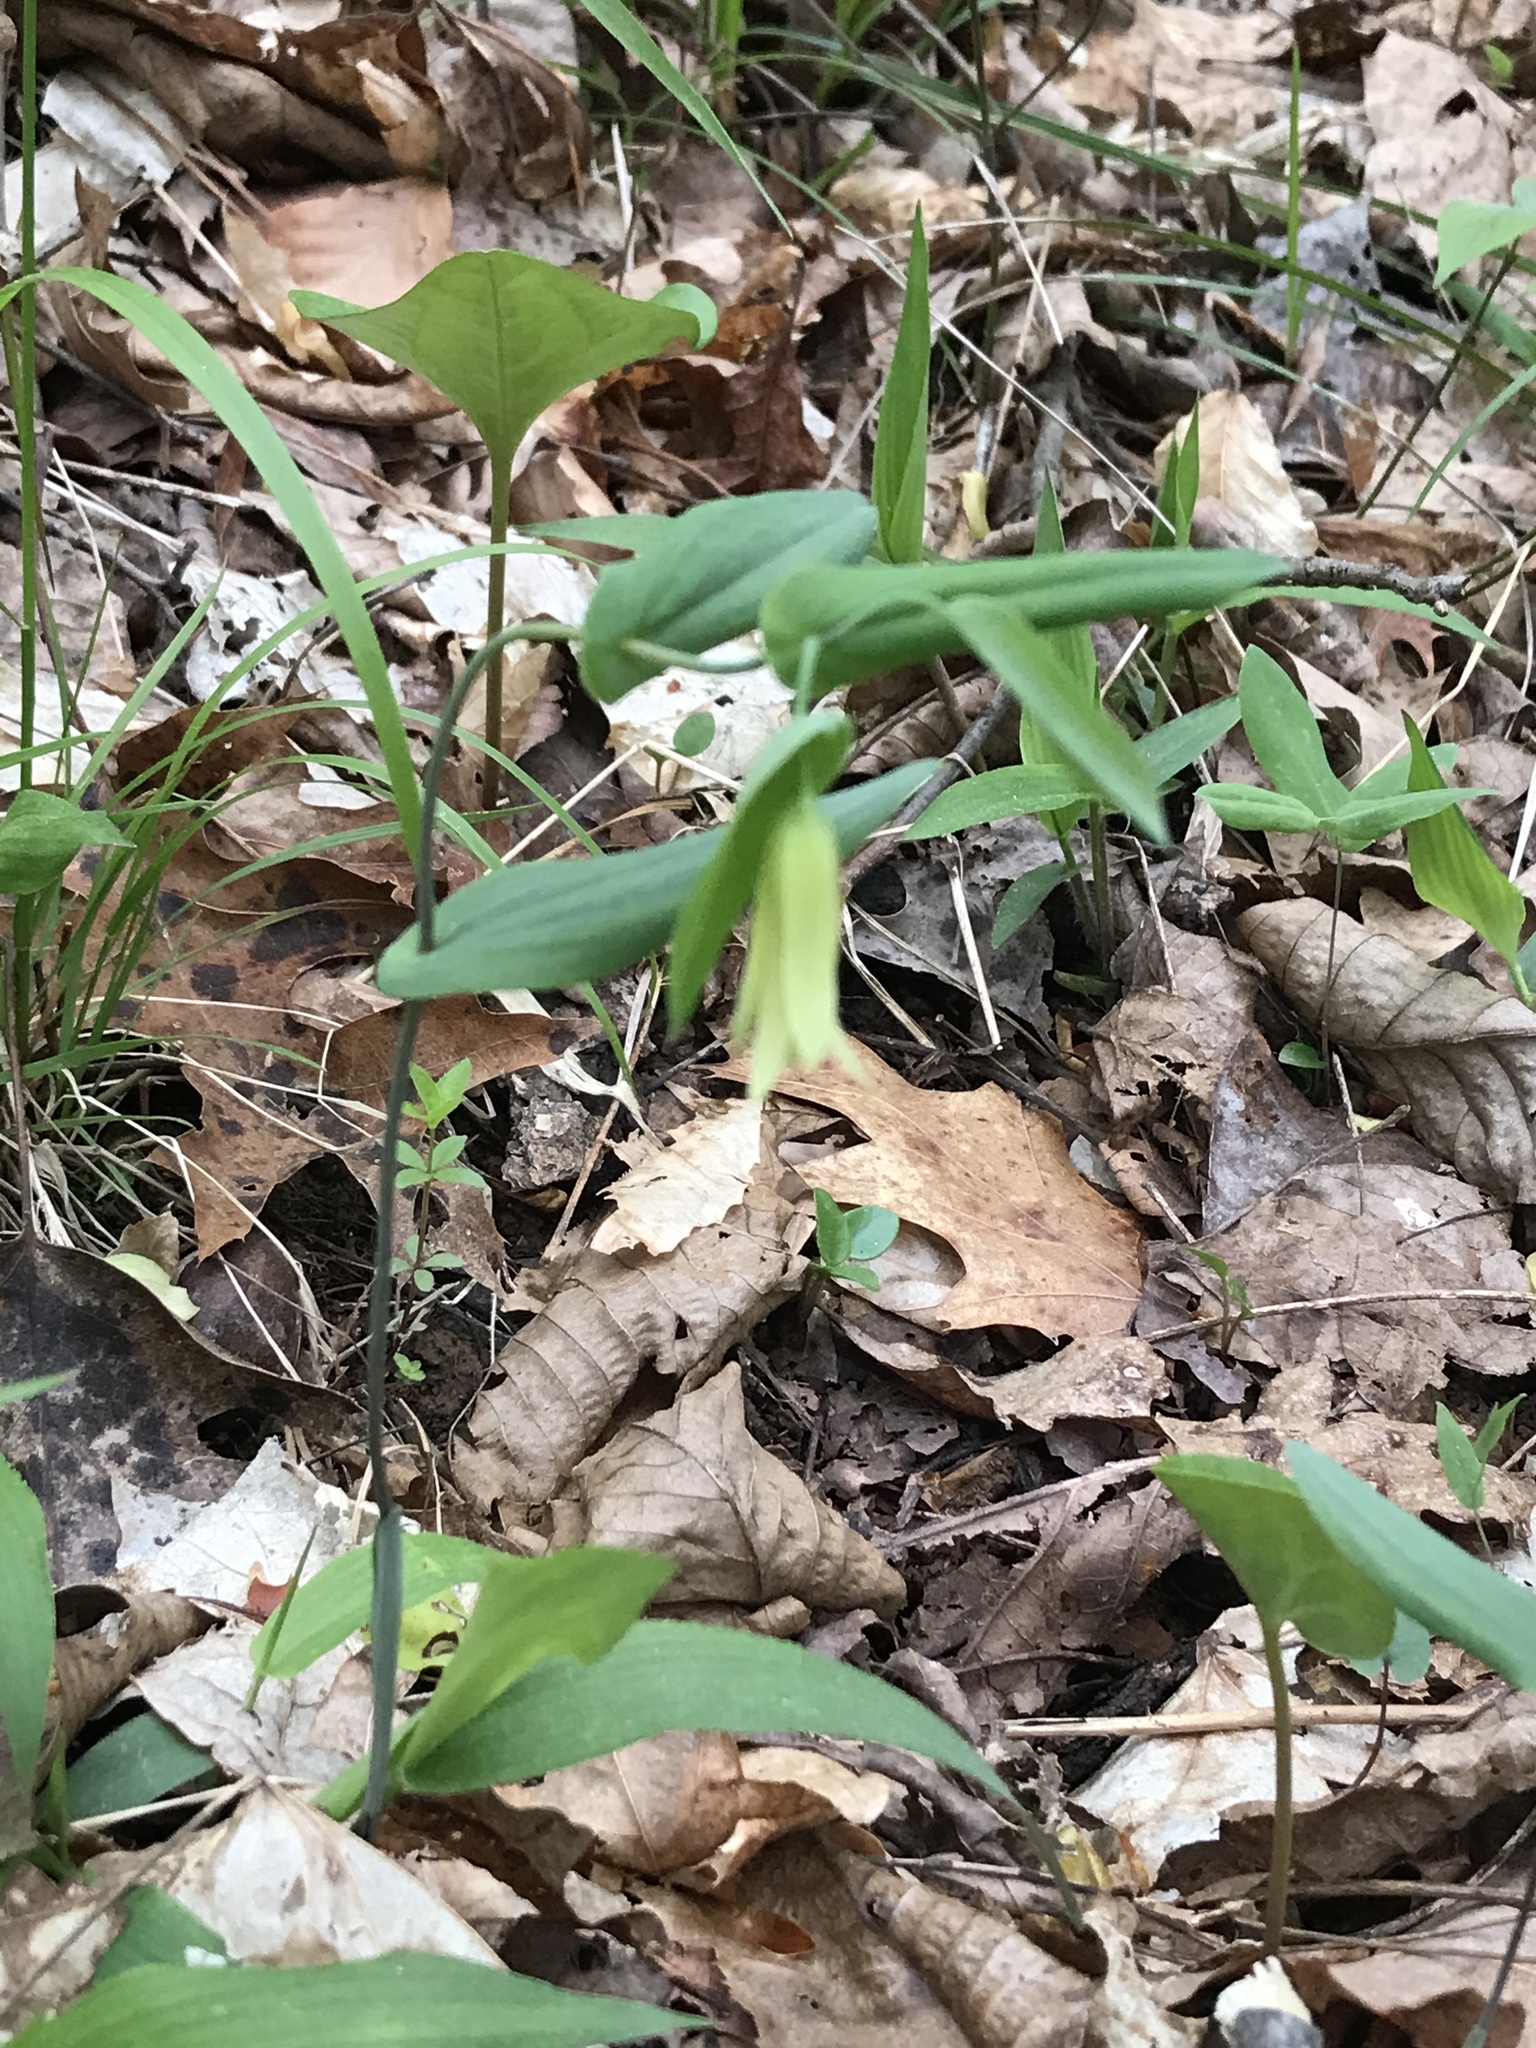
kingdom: Plantae
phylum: Tracheophyta
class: Liliopsida
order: Liliales
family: Colchicaceae
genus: Uvularia
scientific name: Uvularia perfoliata
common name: Perfoliate bellwort
